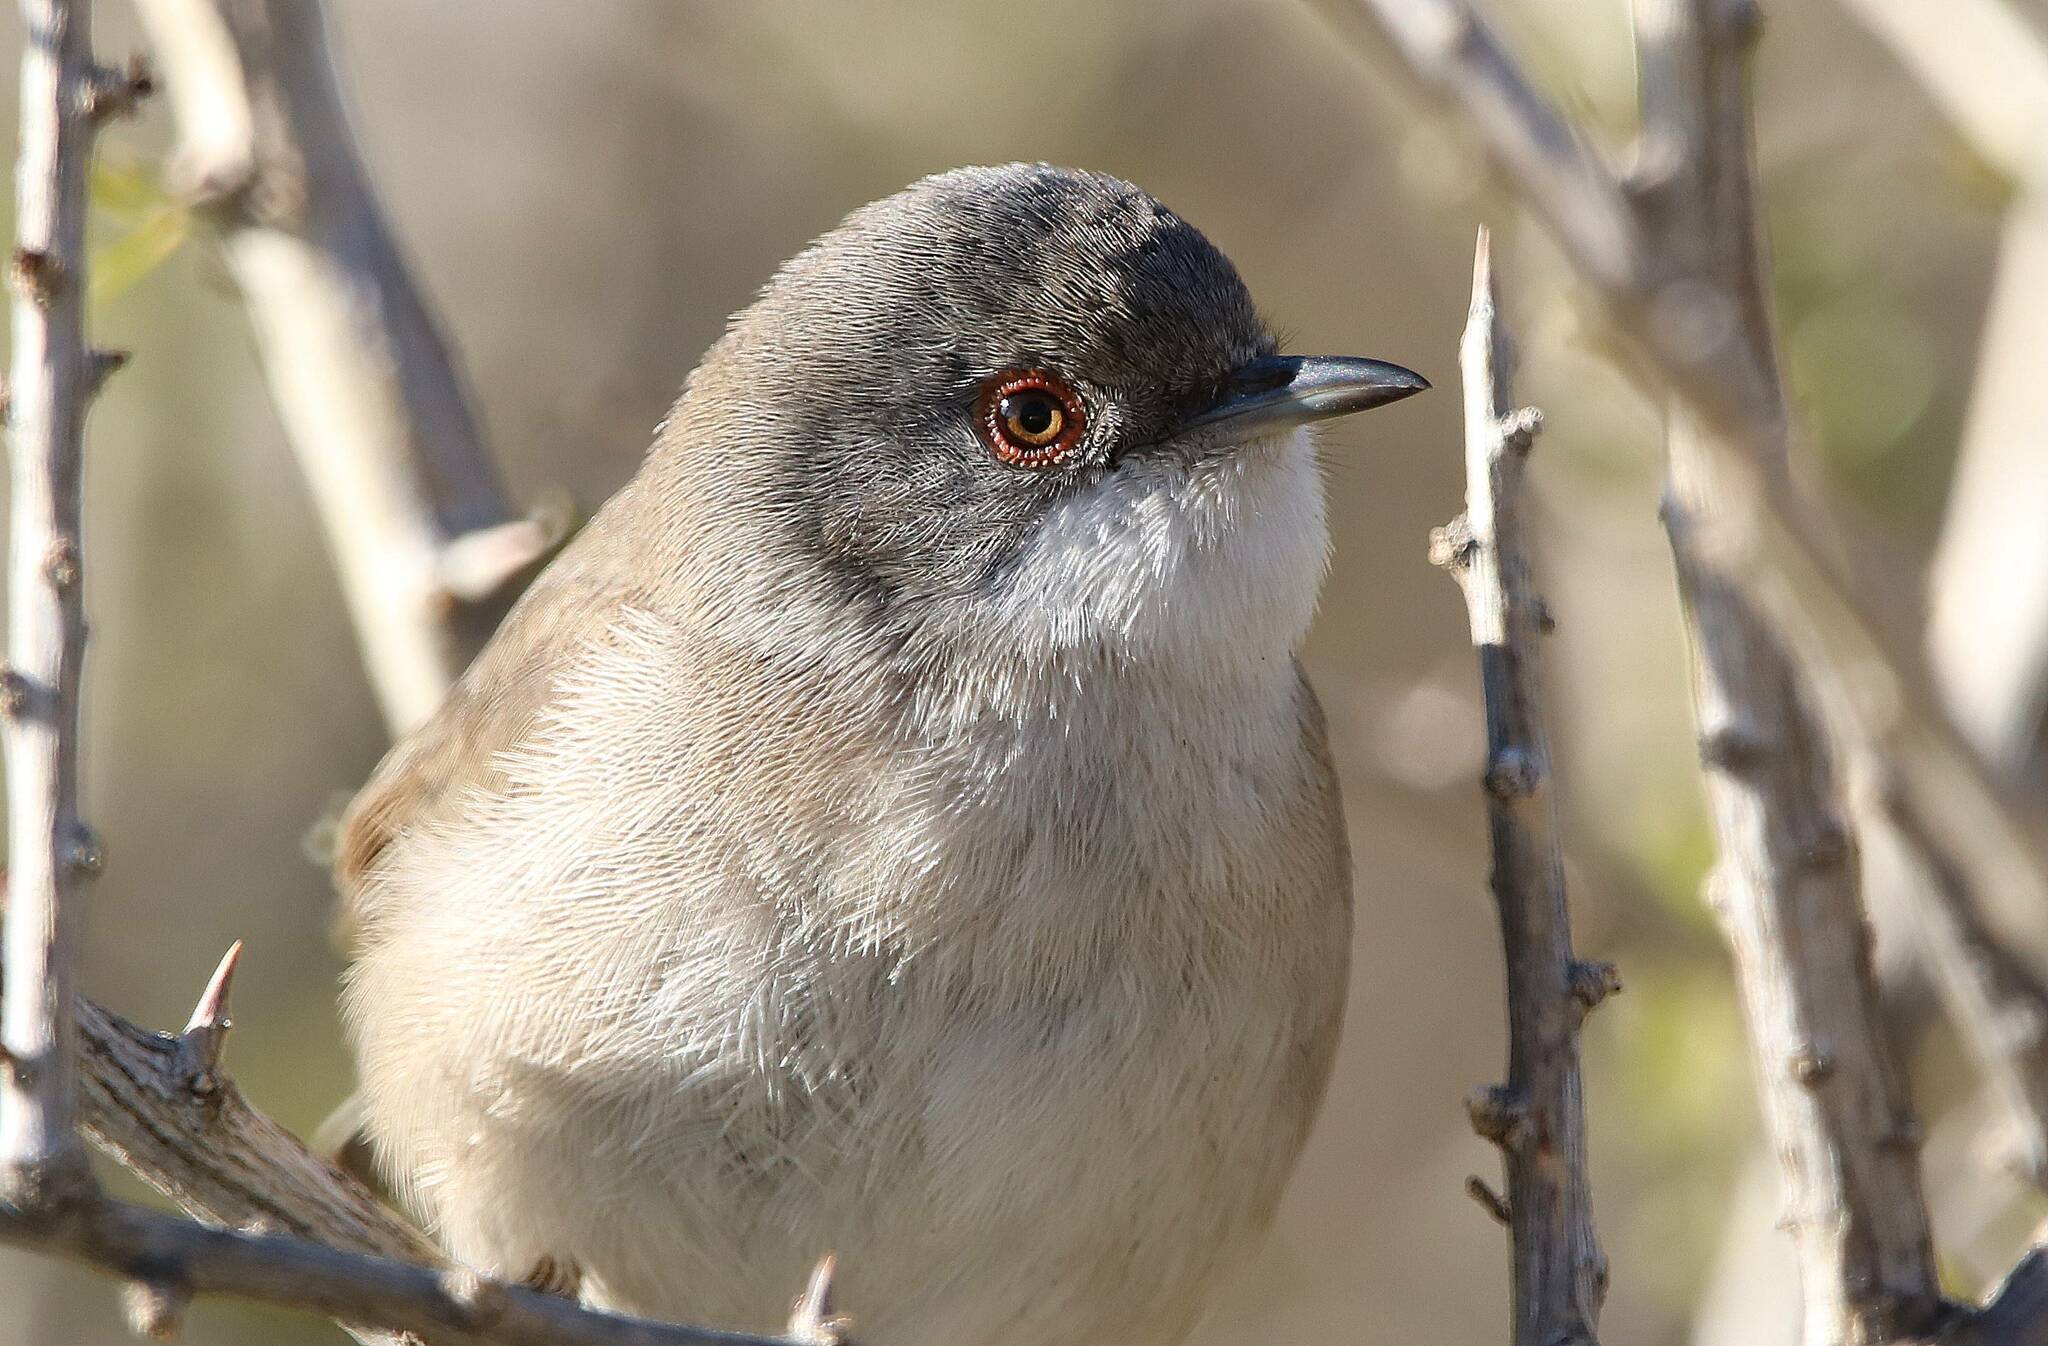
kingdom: Animalia
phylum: Chordata
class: Aves
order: Passeriformes
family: Sylviidae
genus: Curruca
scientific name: Curruca melanocephala
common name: Sardinian warbler
